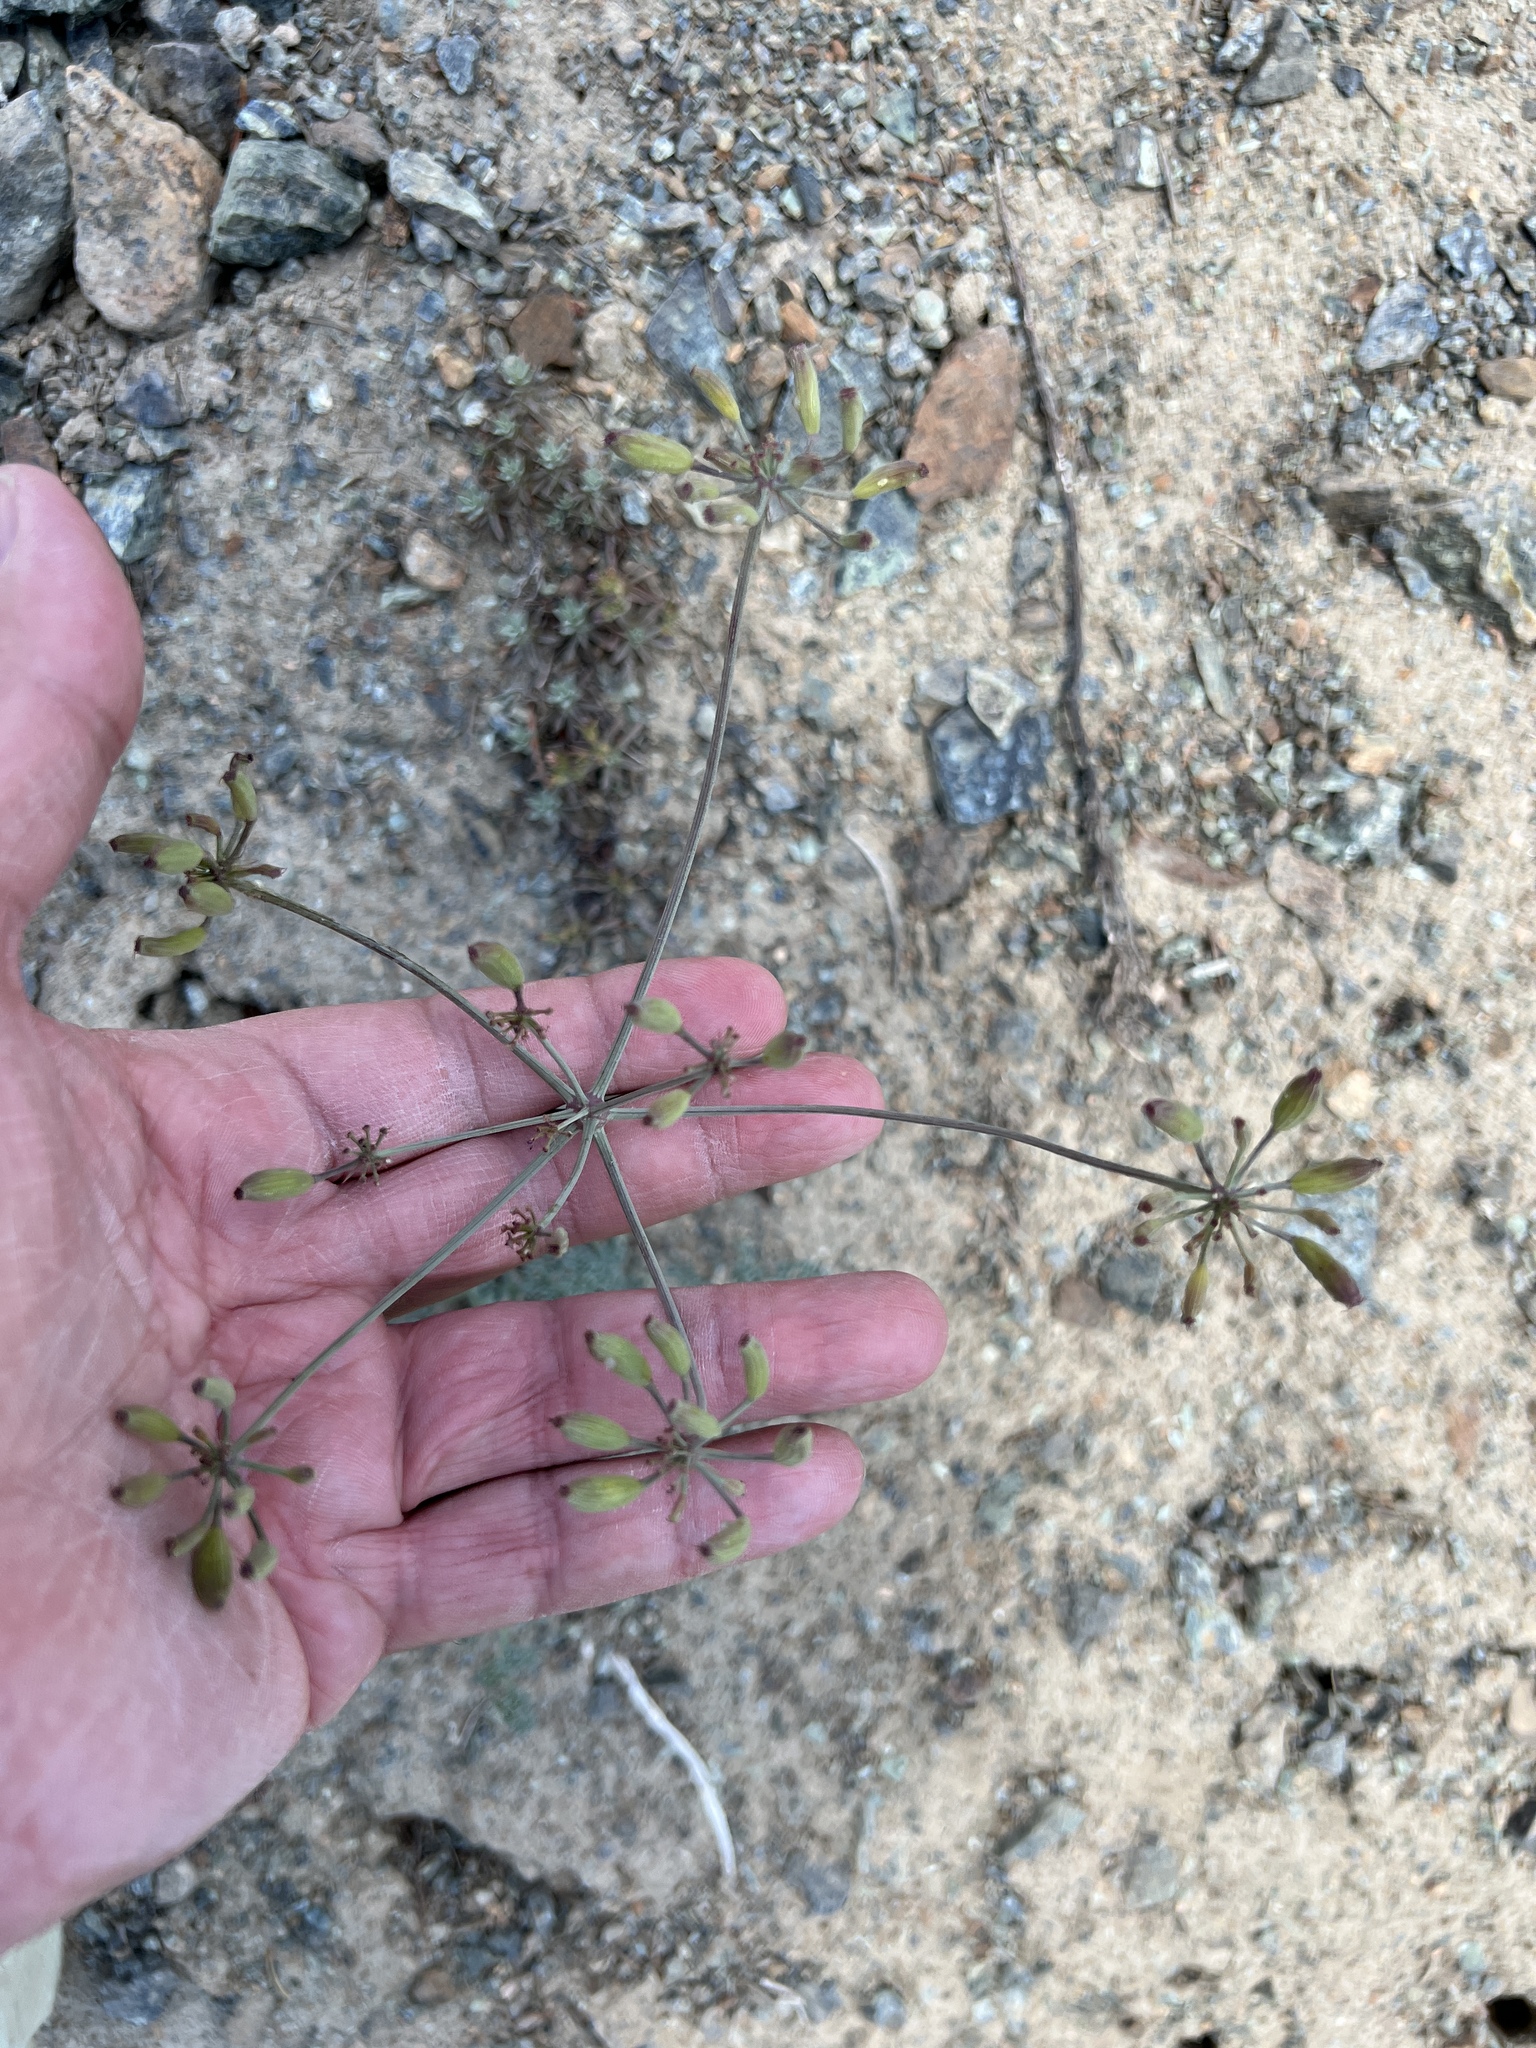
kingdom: Plantae
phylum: Tracheophyta
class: Magnoliopsida
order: Apiales
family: Apiaceae
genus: Lomatium
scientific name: Lomatium cuspidatum
